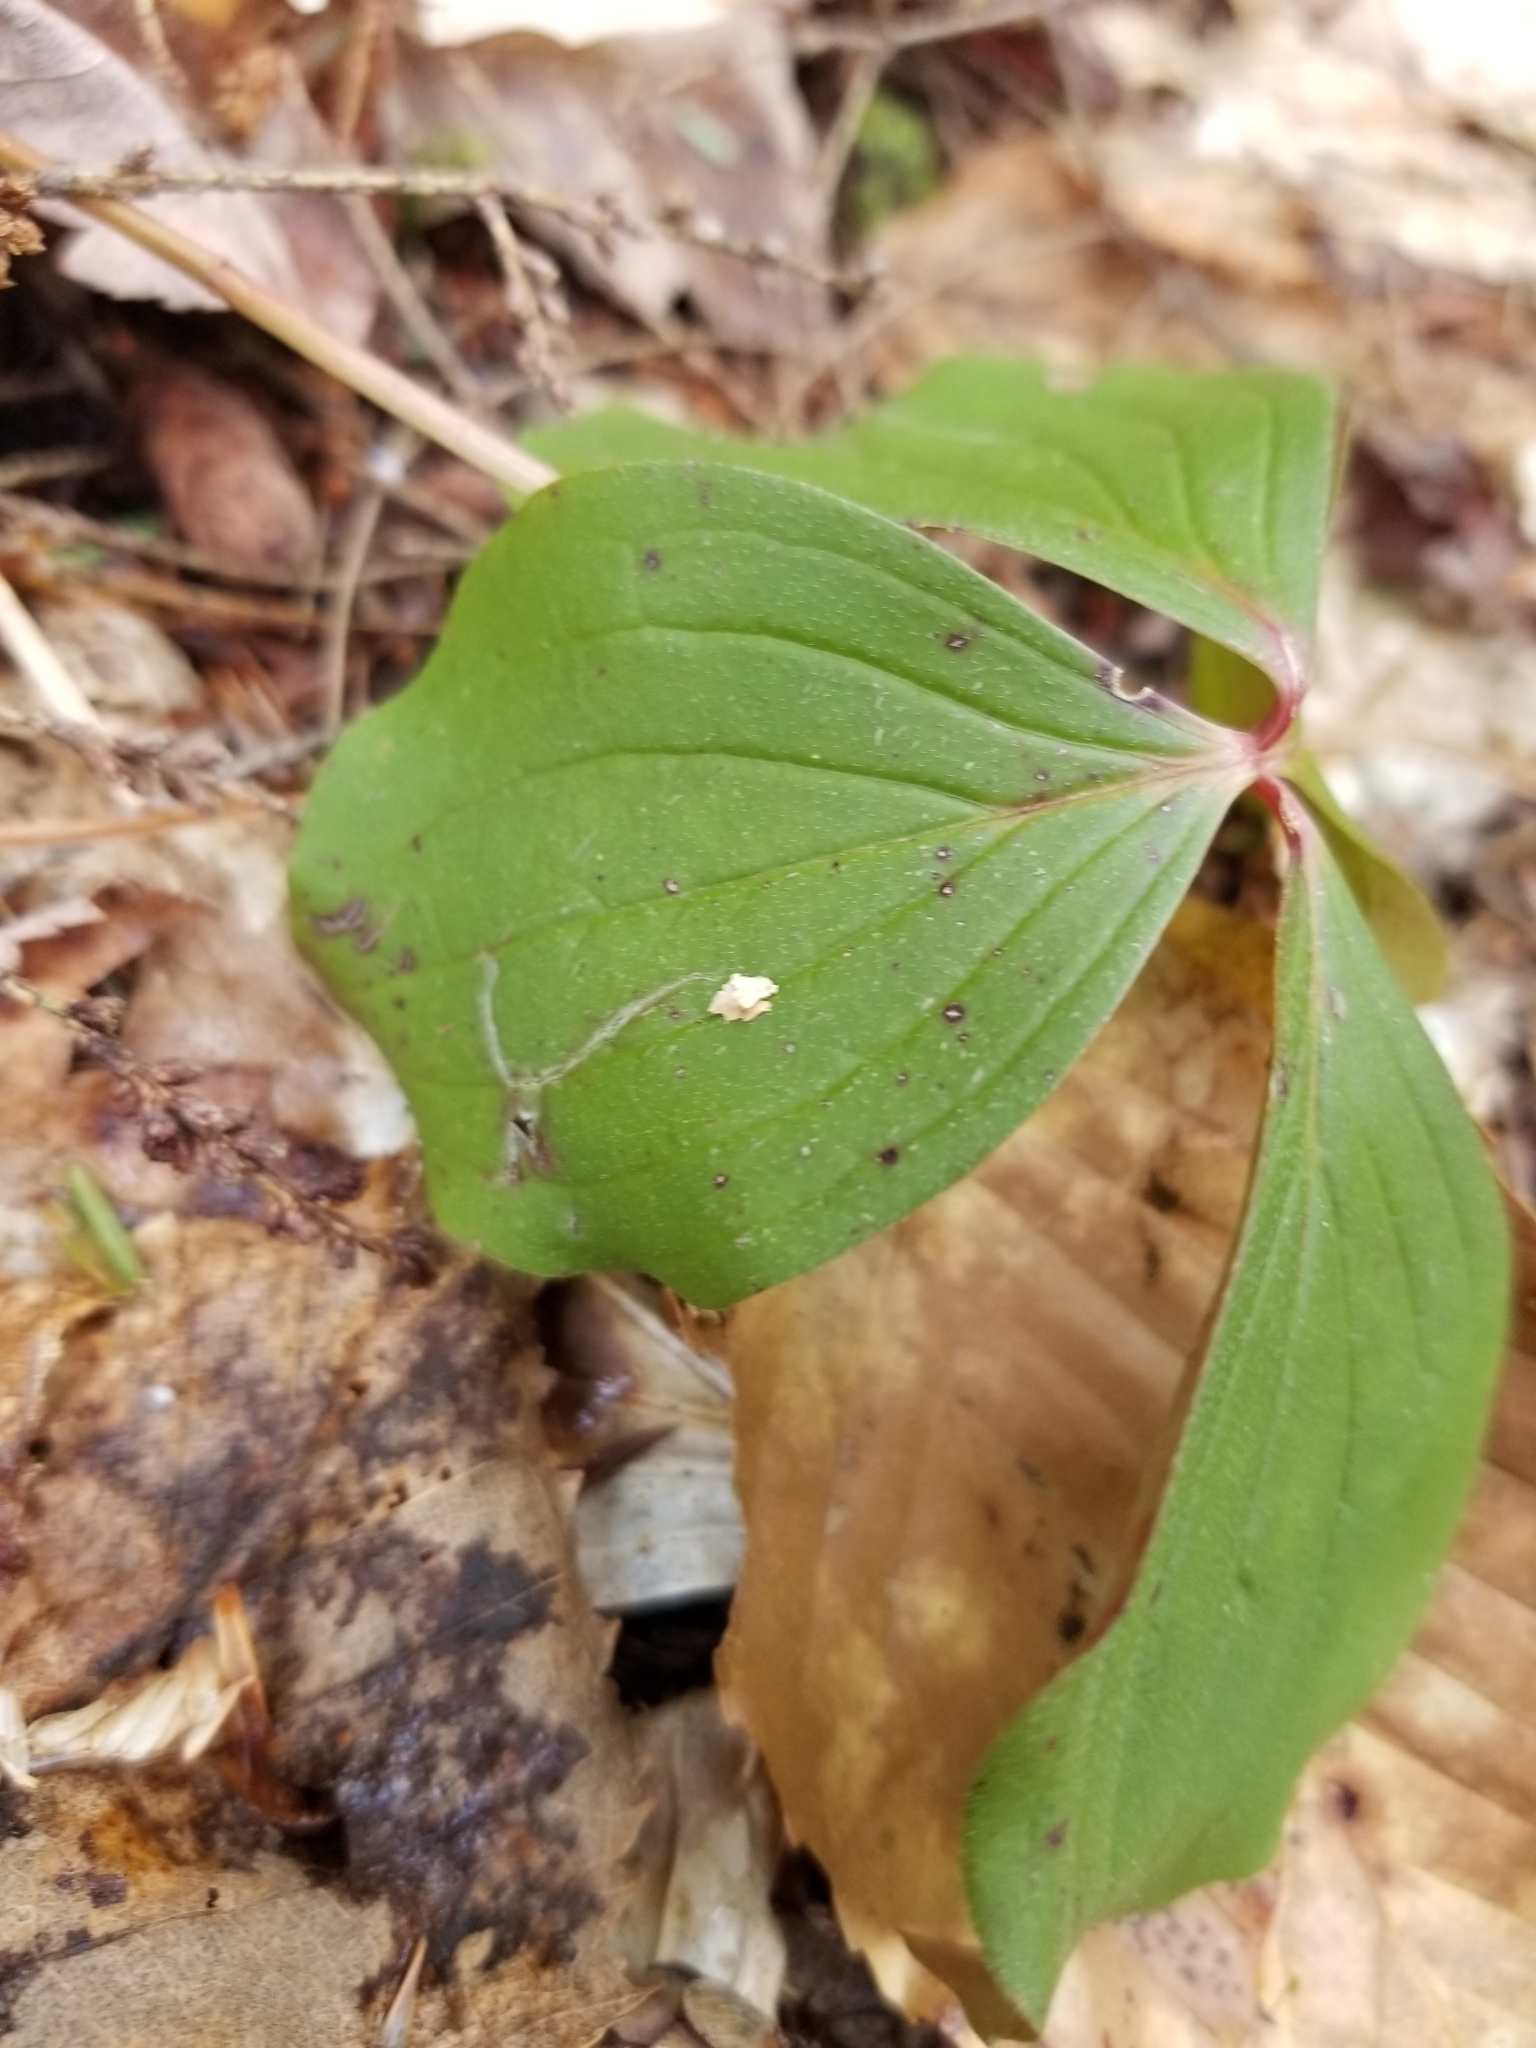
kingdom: Plantae
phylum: Tracheophyta
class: Magnoliopsida
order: Cornales
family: Cornaceae
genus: Cornus
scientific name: Cornus canadensis
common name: Creeping dogwood
